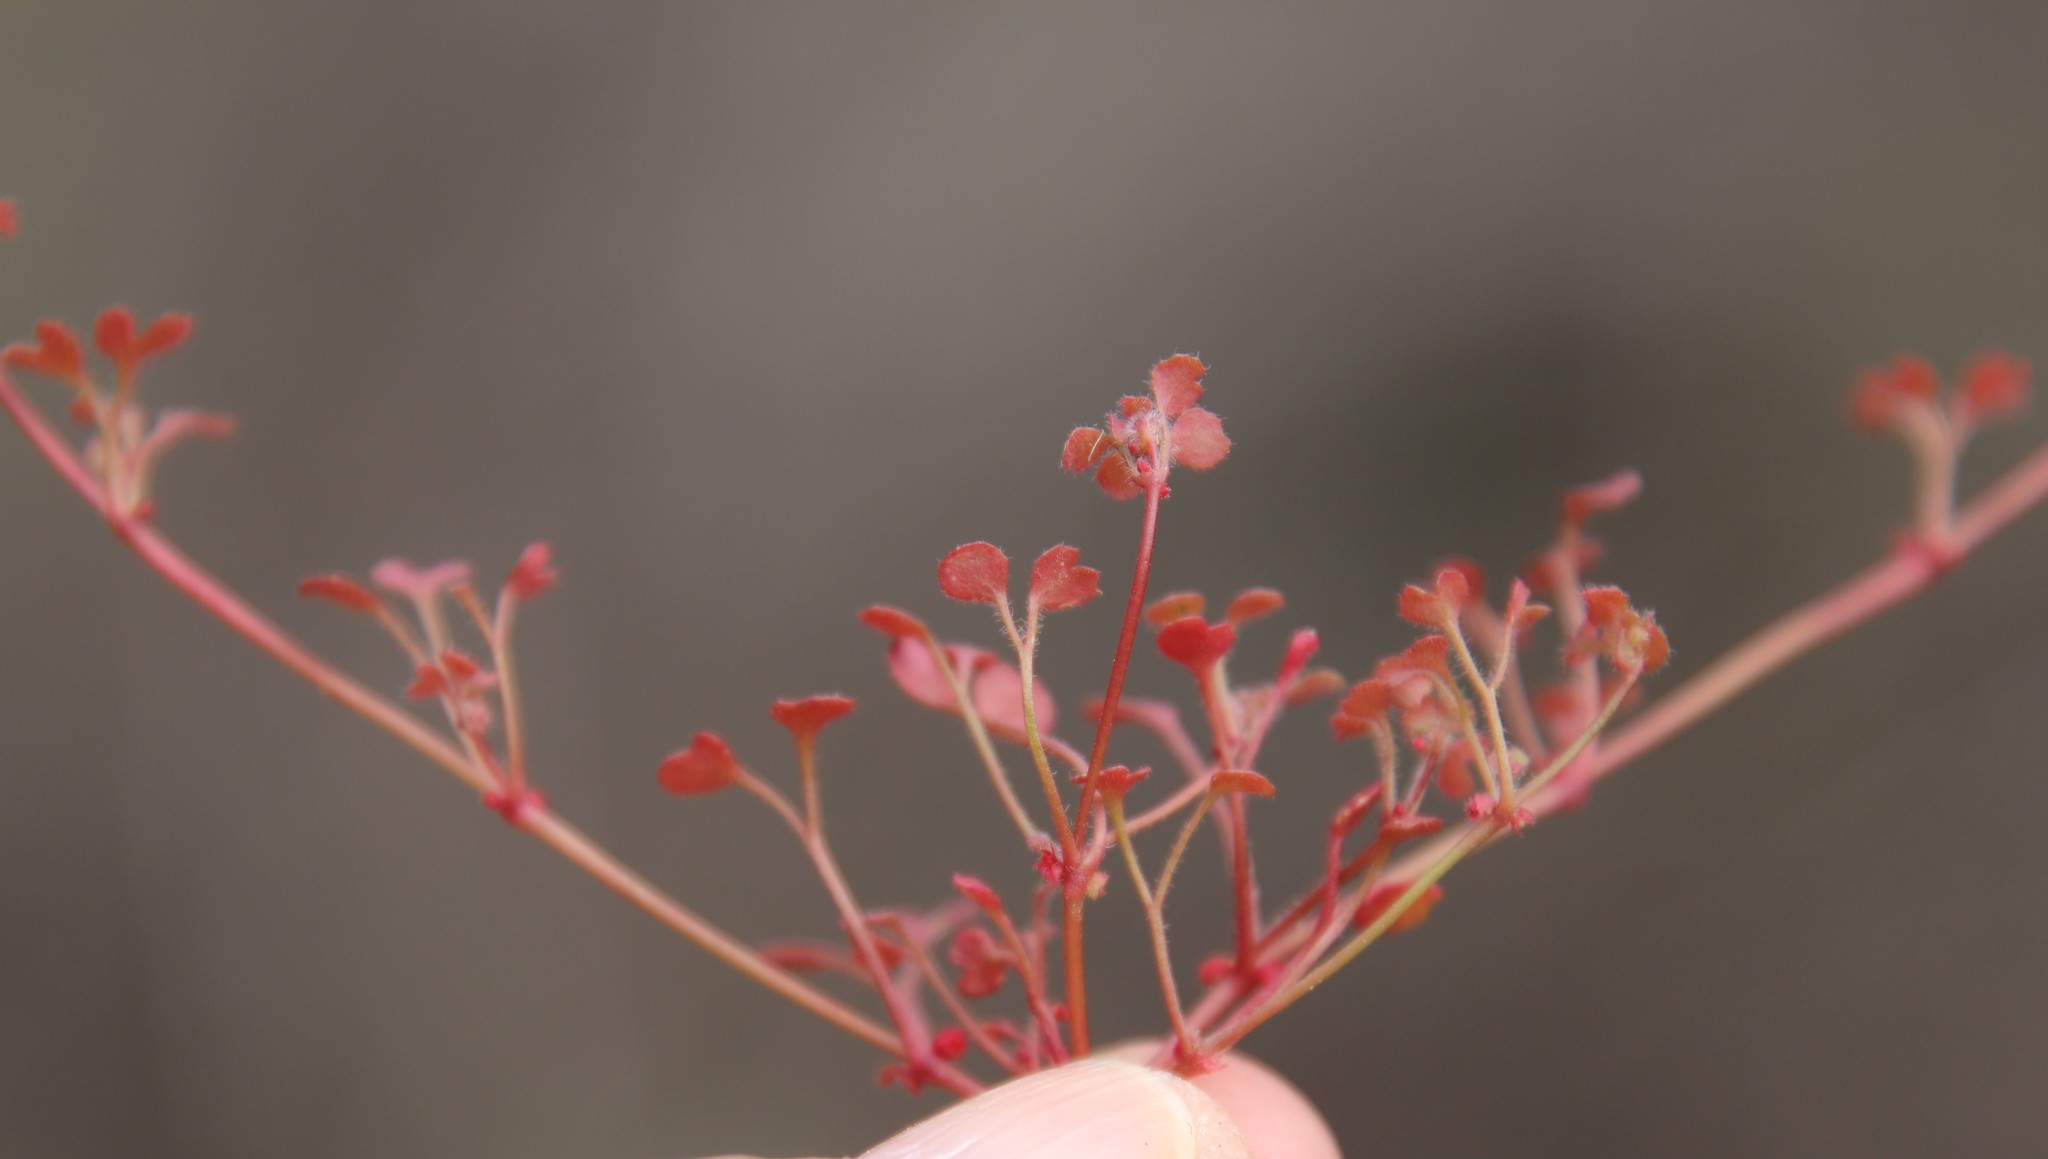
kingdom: Plantae
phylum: Tracheophyta
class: Magnoliopsida
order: Caryophyllales
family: Polygonaceae
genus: Pterostegia
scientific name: Pterostegia drymarioides
